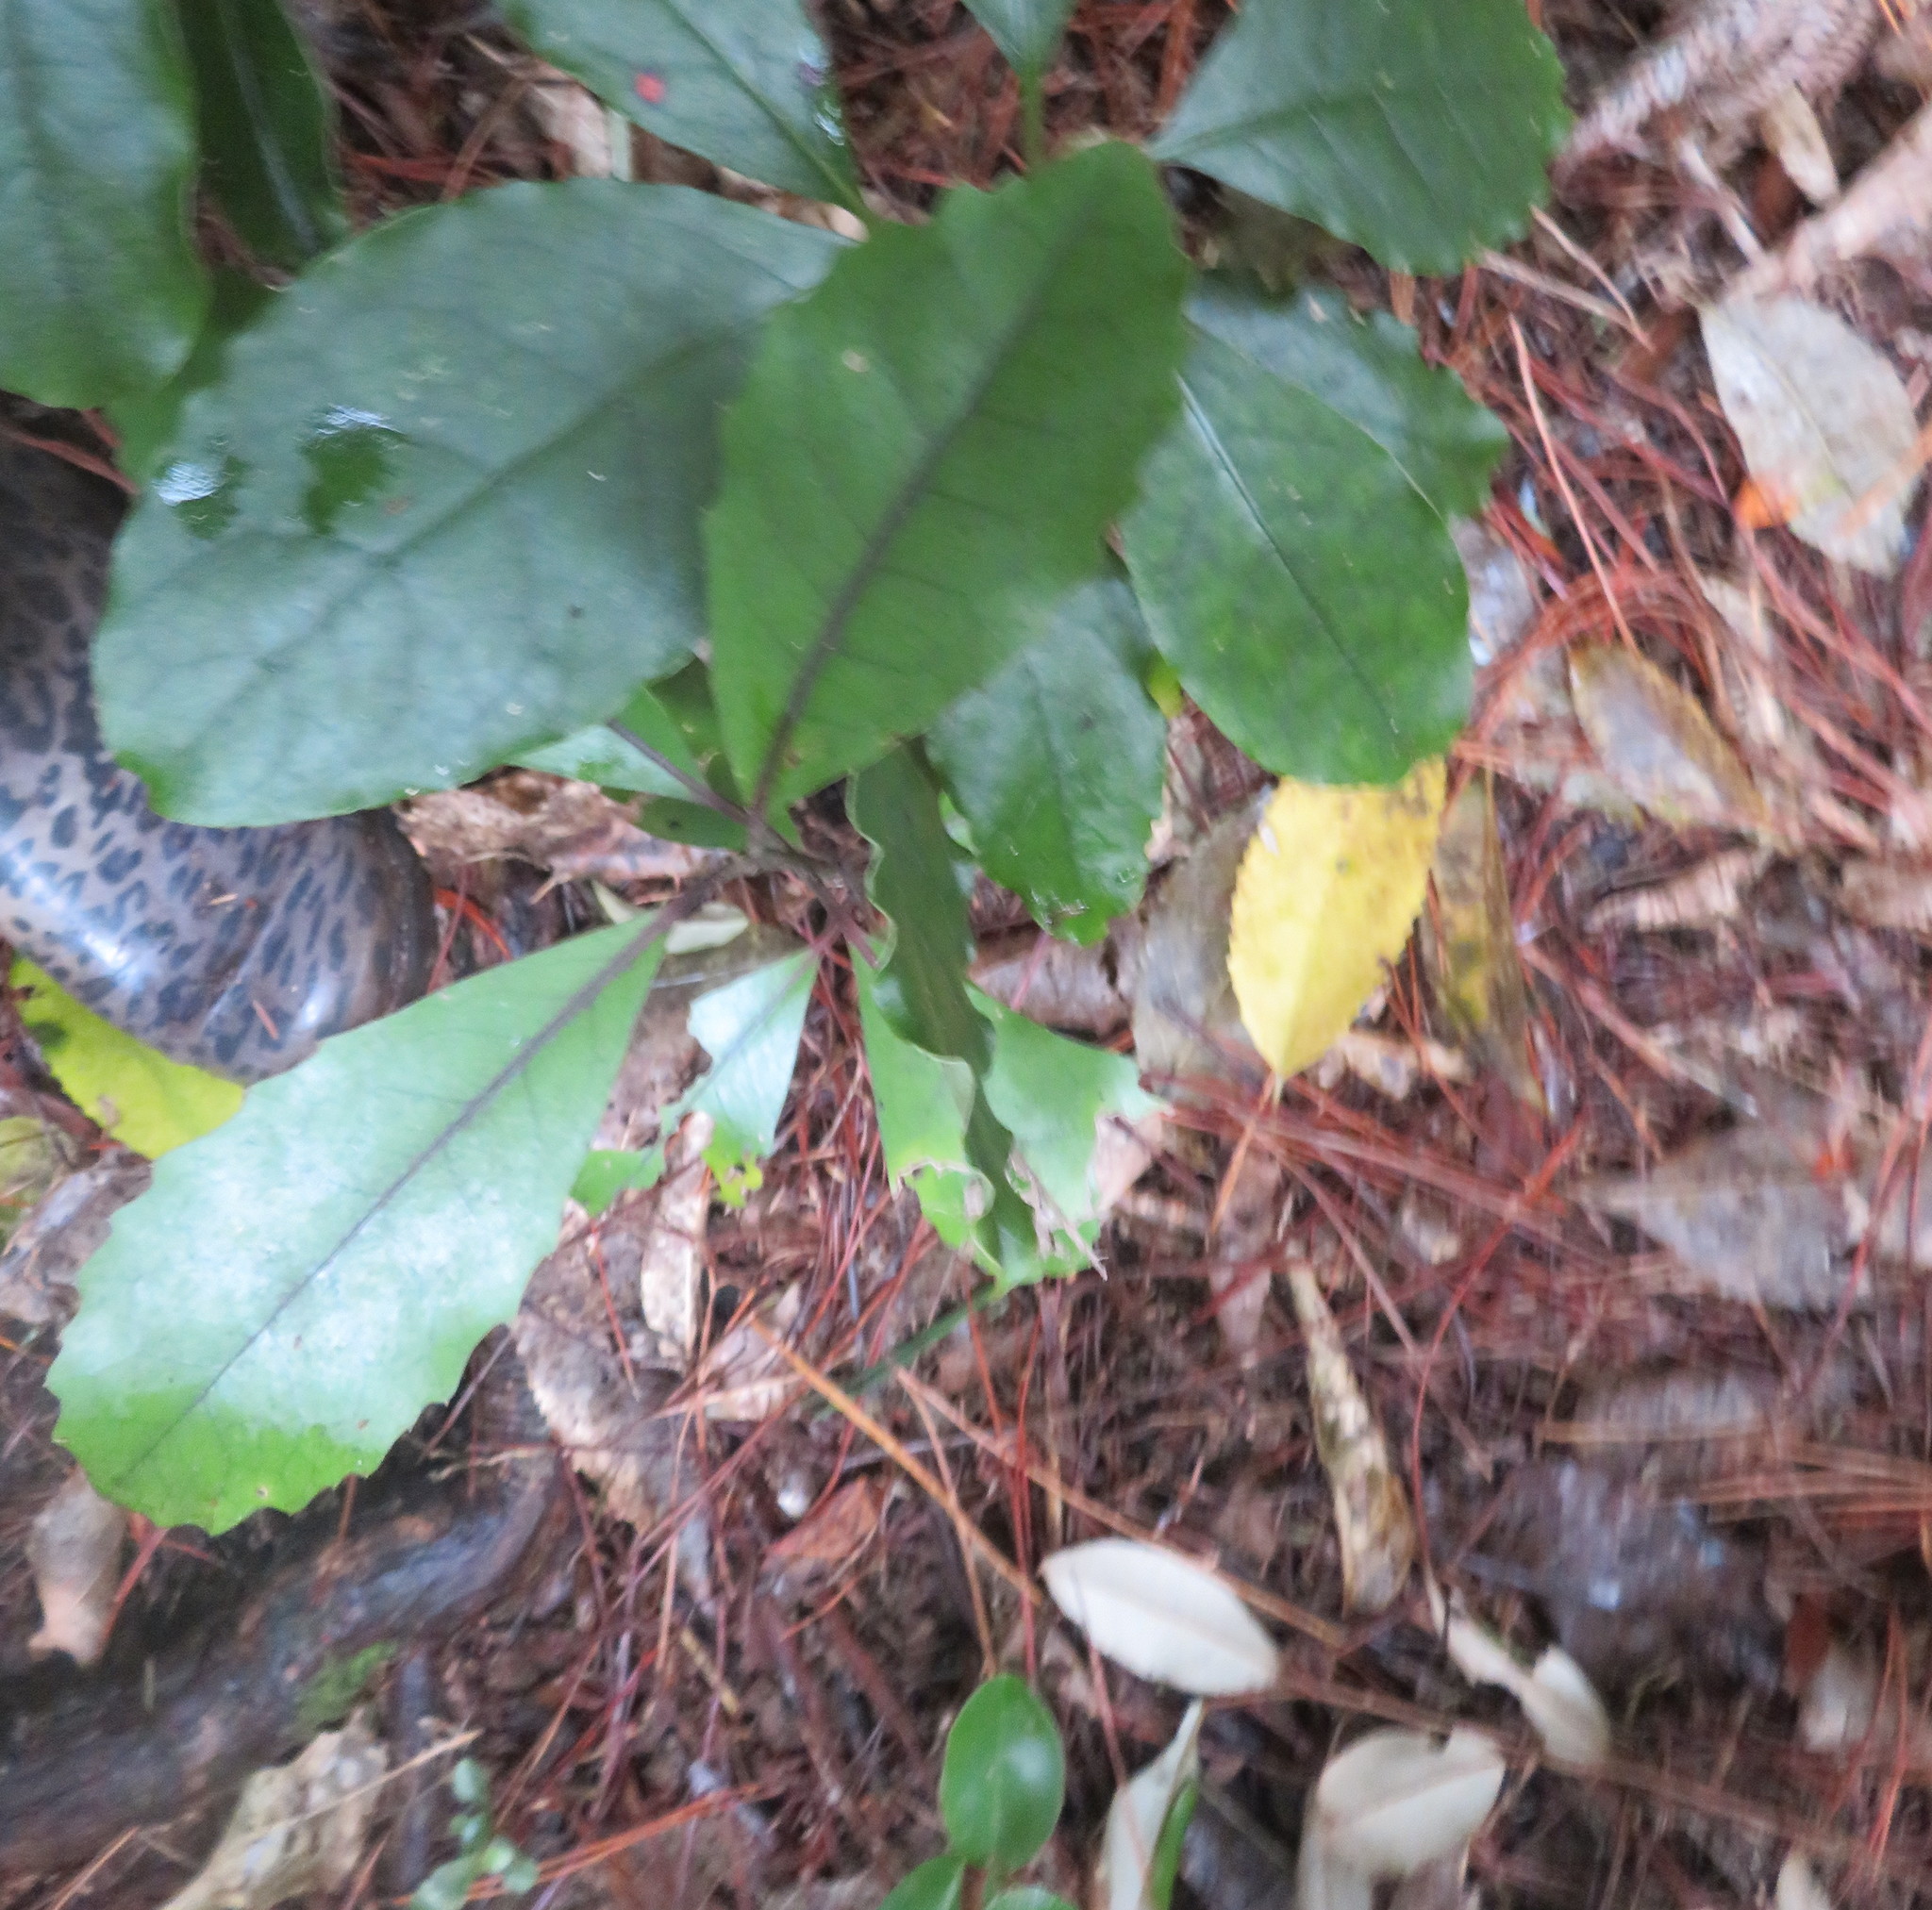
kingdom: Plantae
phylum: Tracheophyta
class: Magnoliopsida
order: Laurales
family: Monimiaceae
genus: Hedycarya
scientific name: Hedycarya arborea
